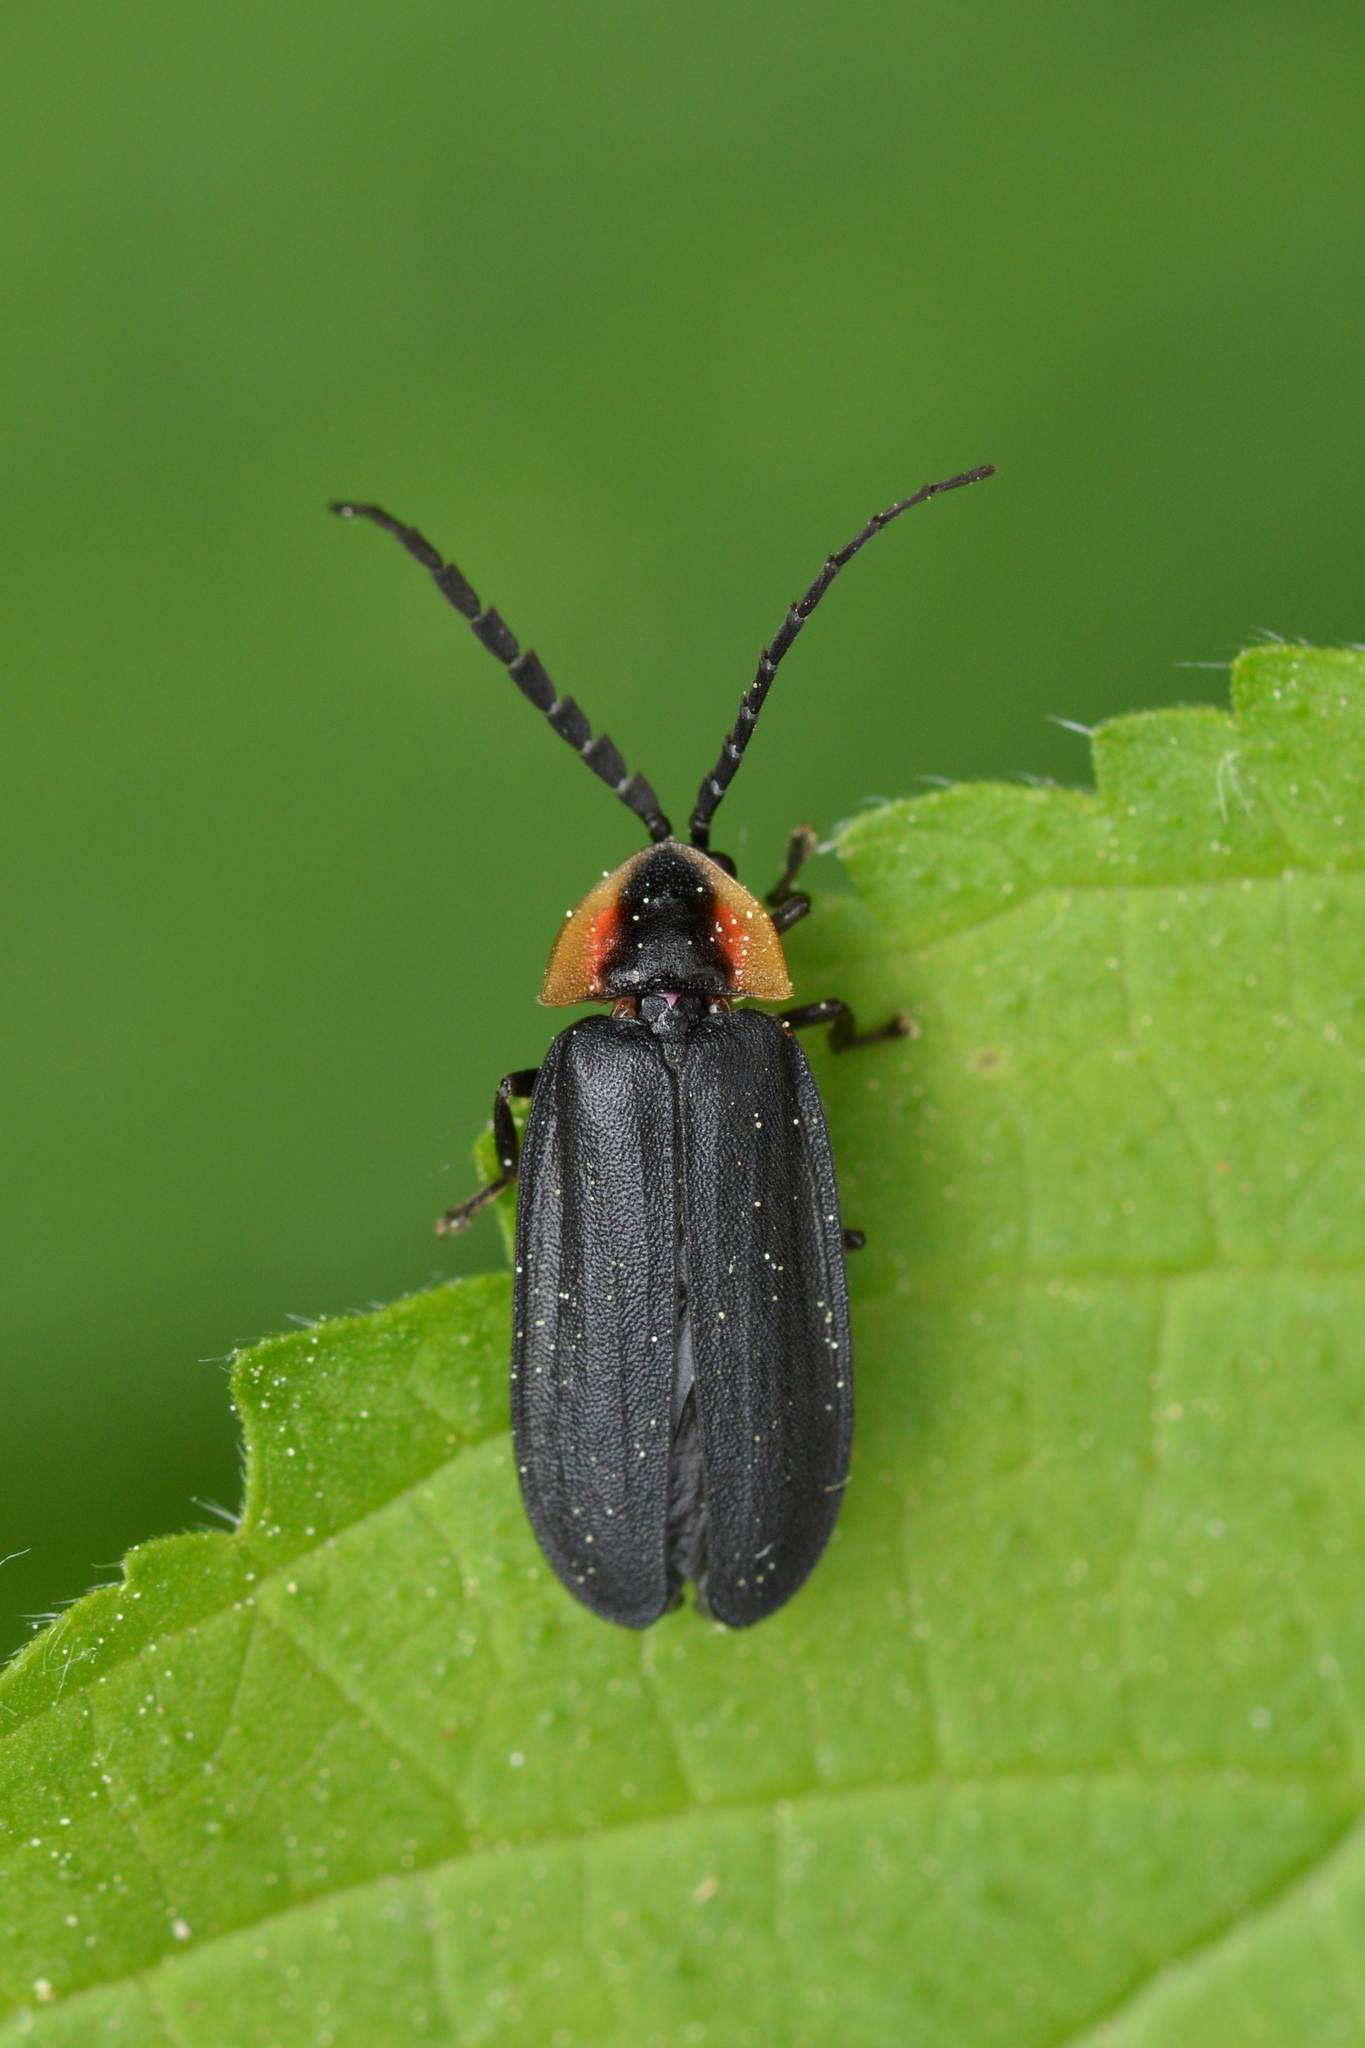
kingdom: Animalia
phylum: Arthropoda
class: Insecta
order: Coleoptera
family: Lampyridae
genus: Lucidota
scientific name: Lucidota atra
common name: Black firefly
